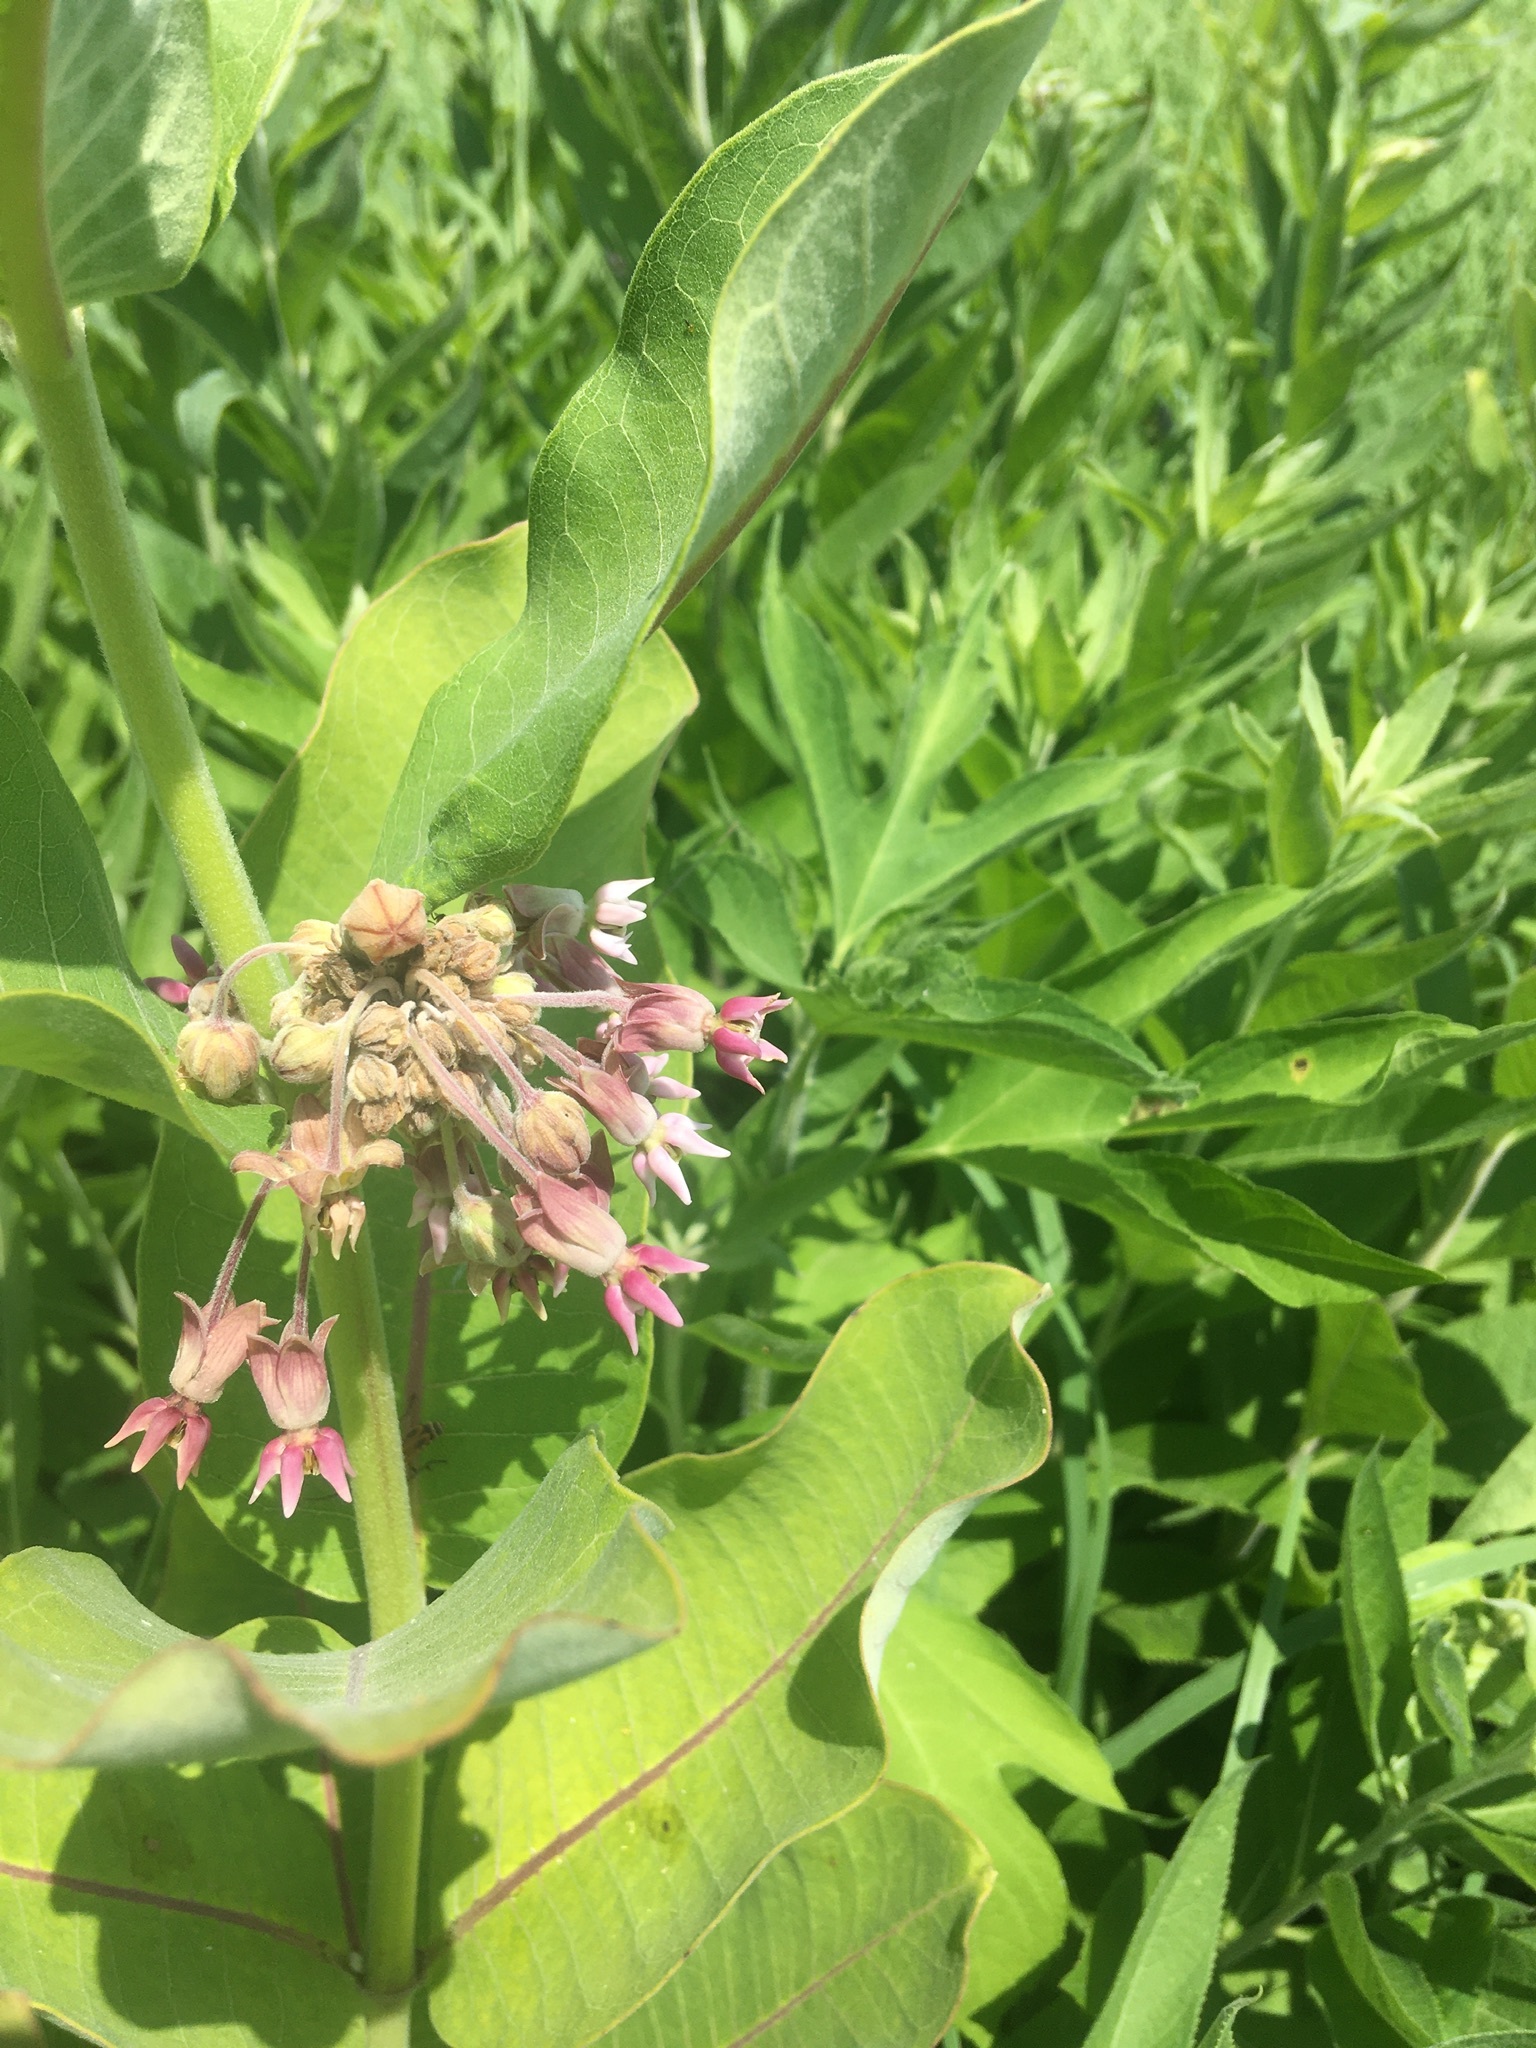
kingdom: Plantae
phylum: Tracheophyta
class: Magnoliopsida
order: Gentianales
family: Apocynaceae
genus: Asclepias
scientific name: Asclepias syriaca
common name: Common milkweed
